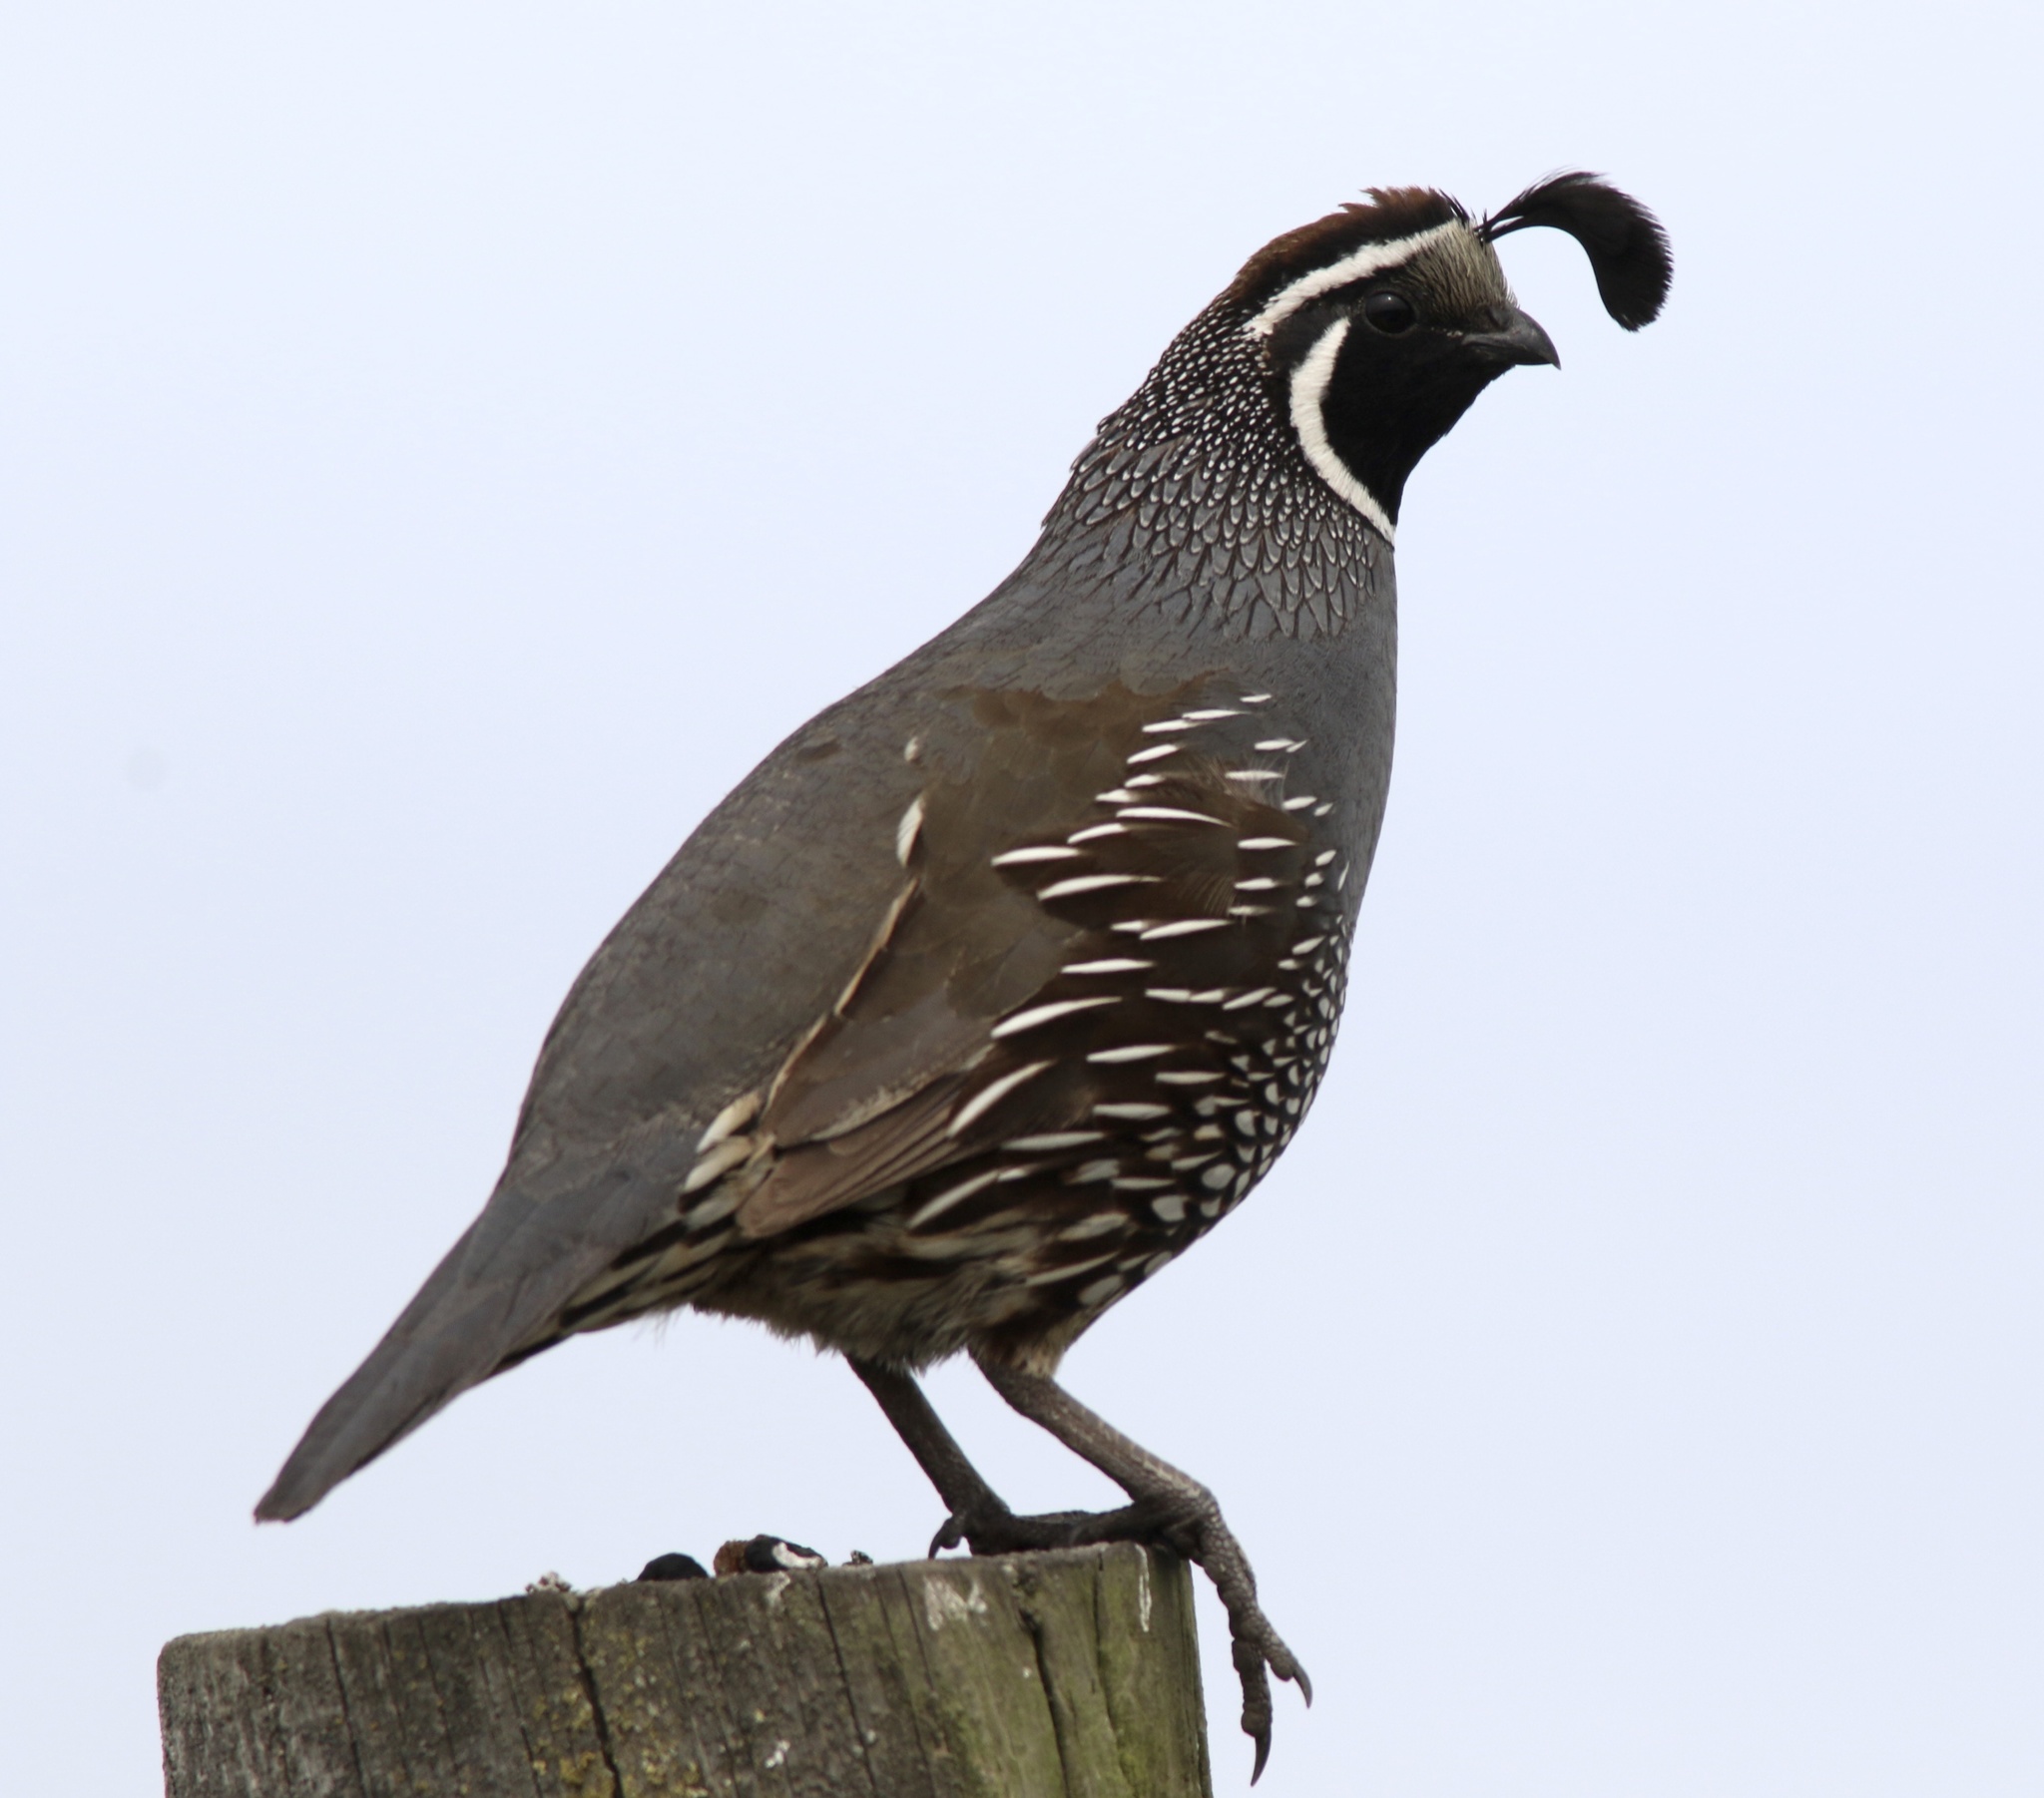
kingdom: Animalia
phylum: Chordata
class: Aves
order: Galliformes
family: Odontophoridae
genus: Callipepla
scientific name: Callipepla californica
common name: California quail
